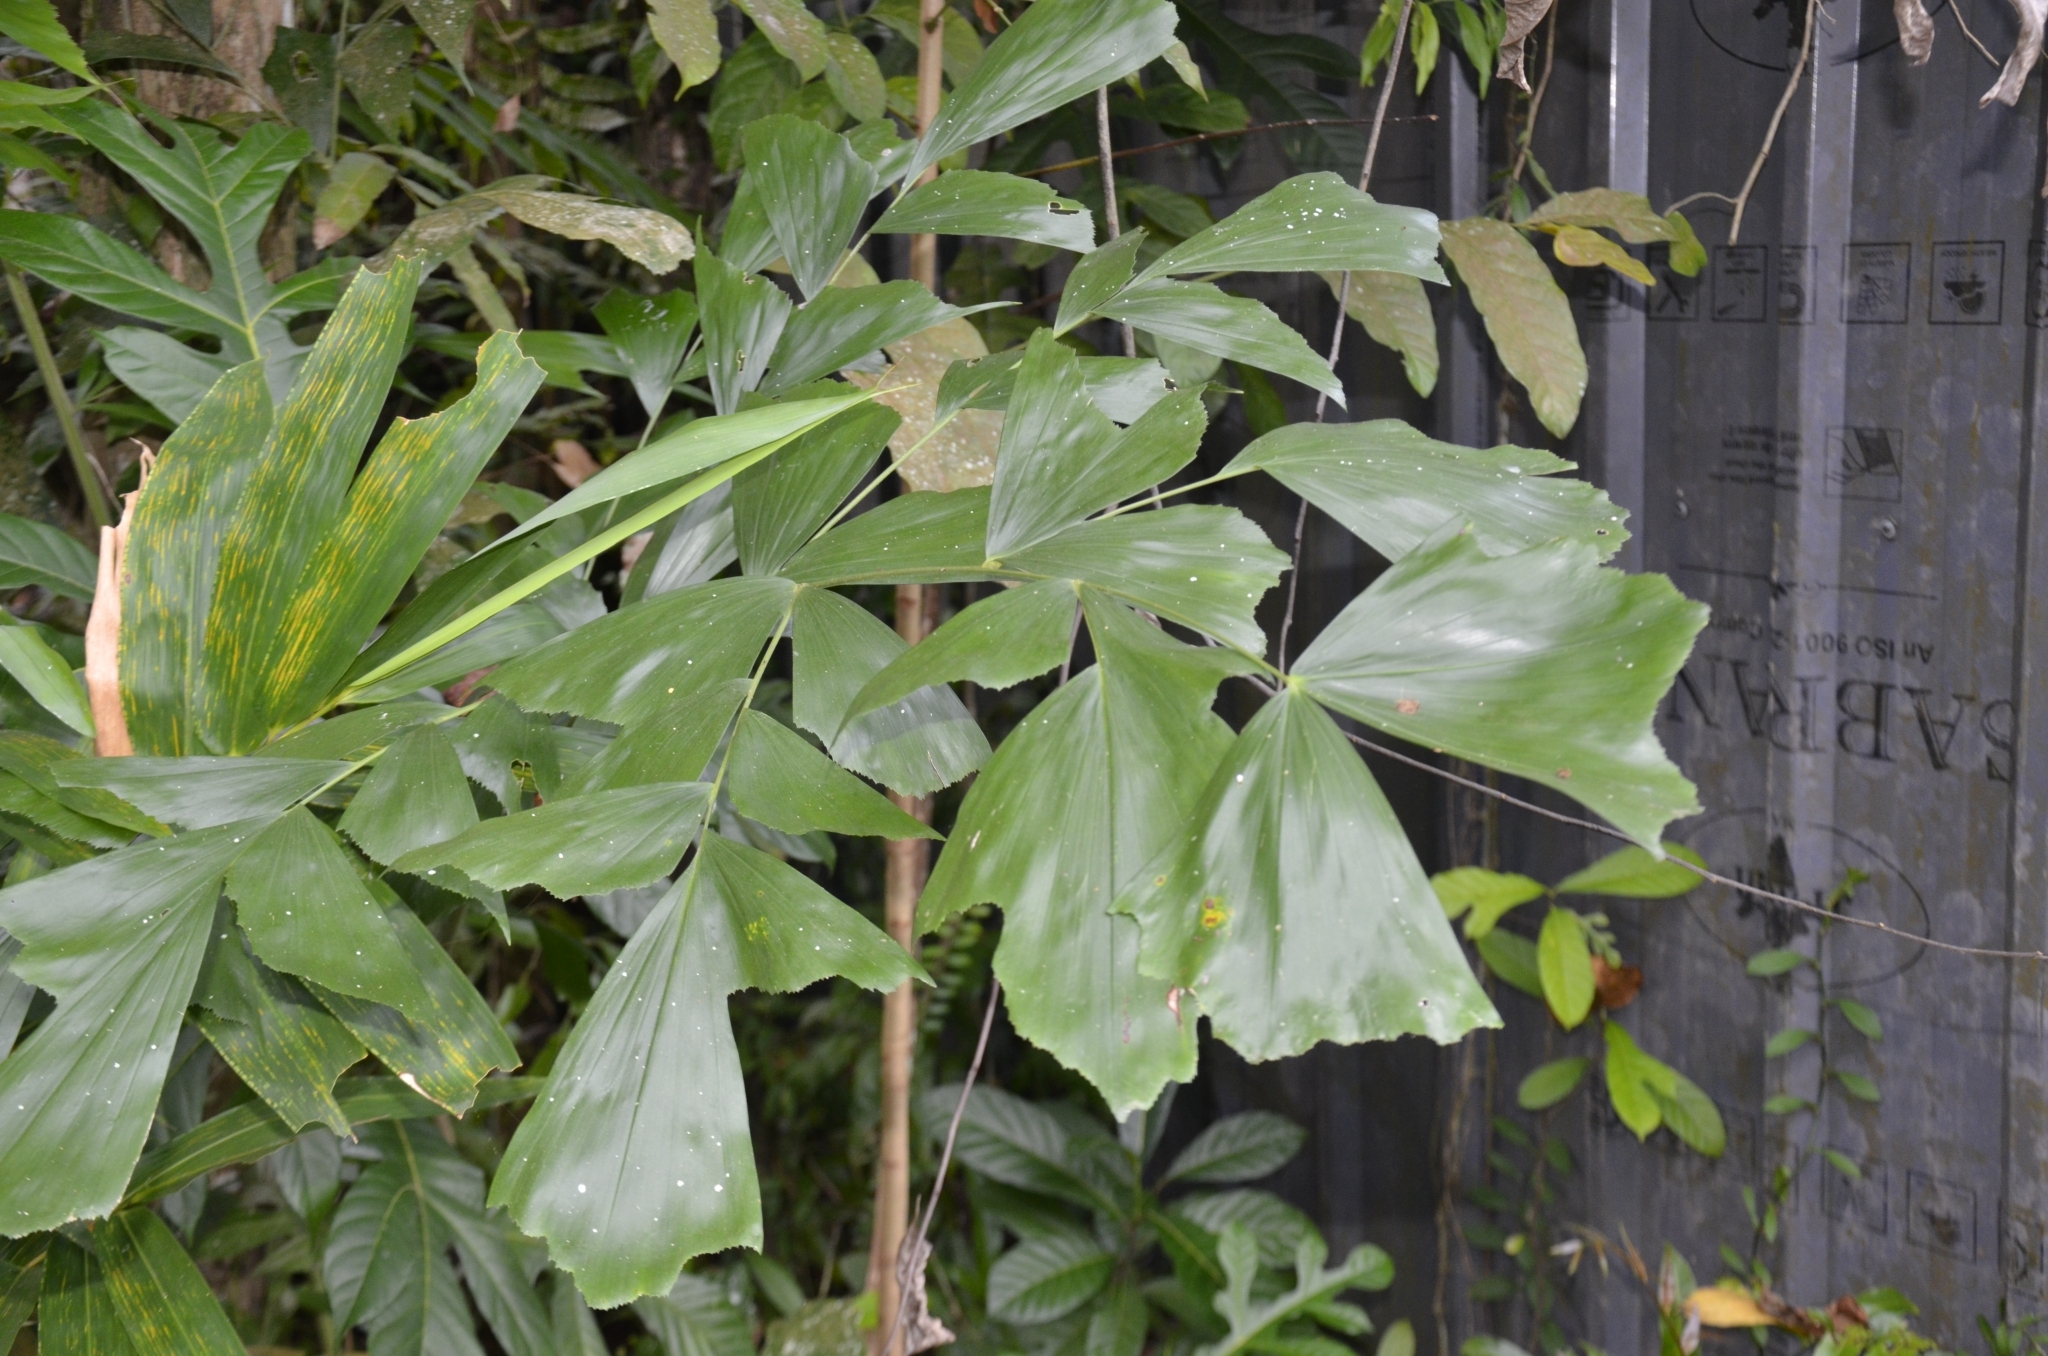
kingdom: Plantae
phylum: Tracheophyta
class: Liliopsida
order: Arecales
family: Arecaceae
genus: Caryota
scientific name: Caryota urens
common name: Jaggery palm
